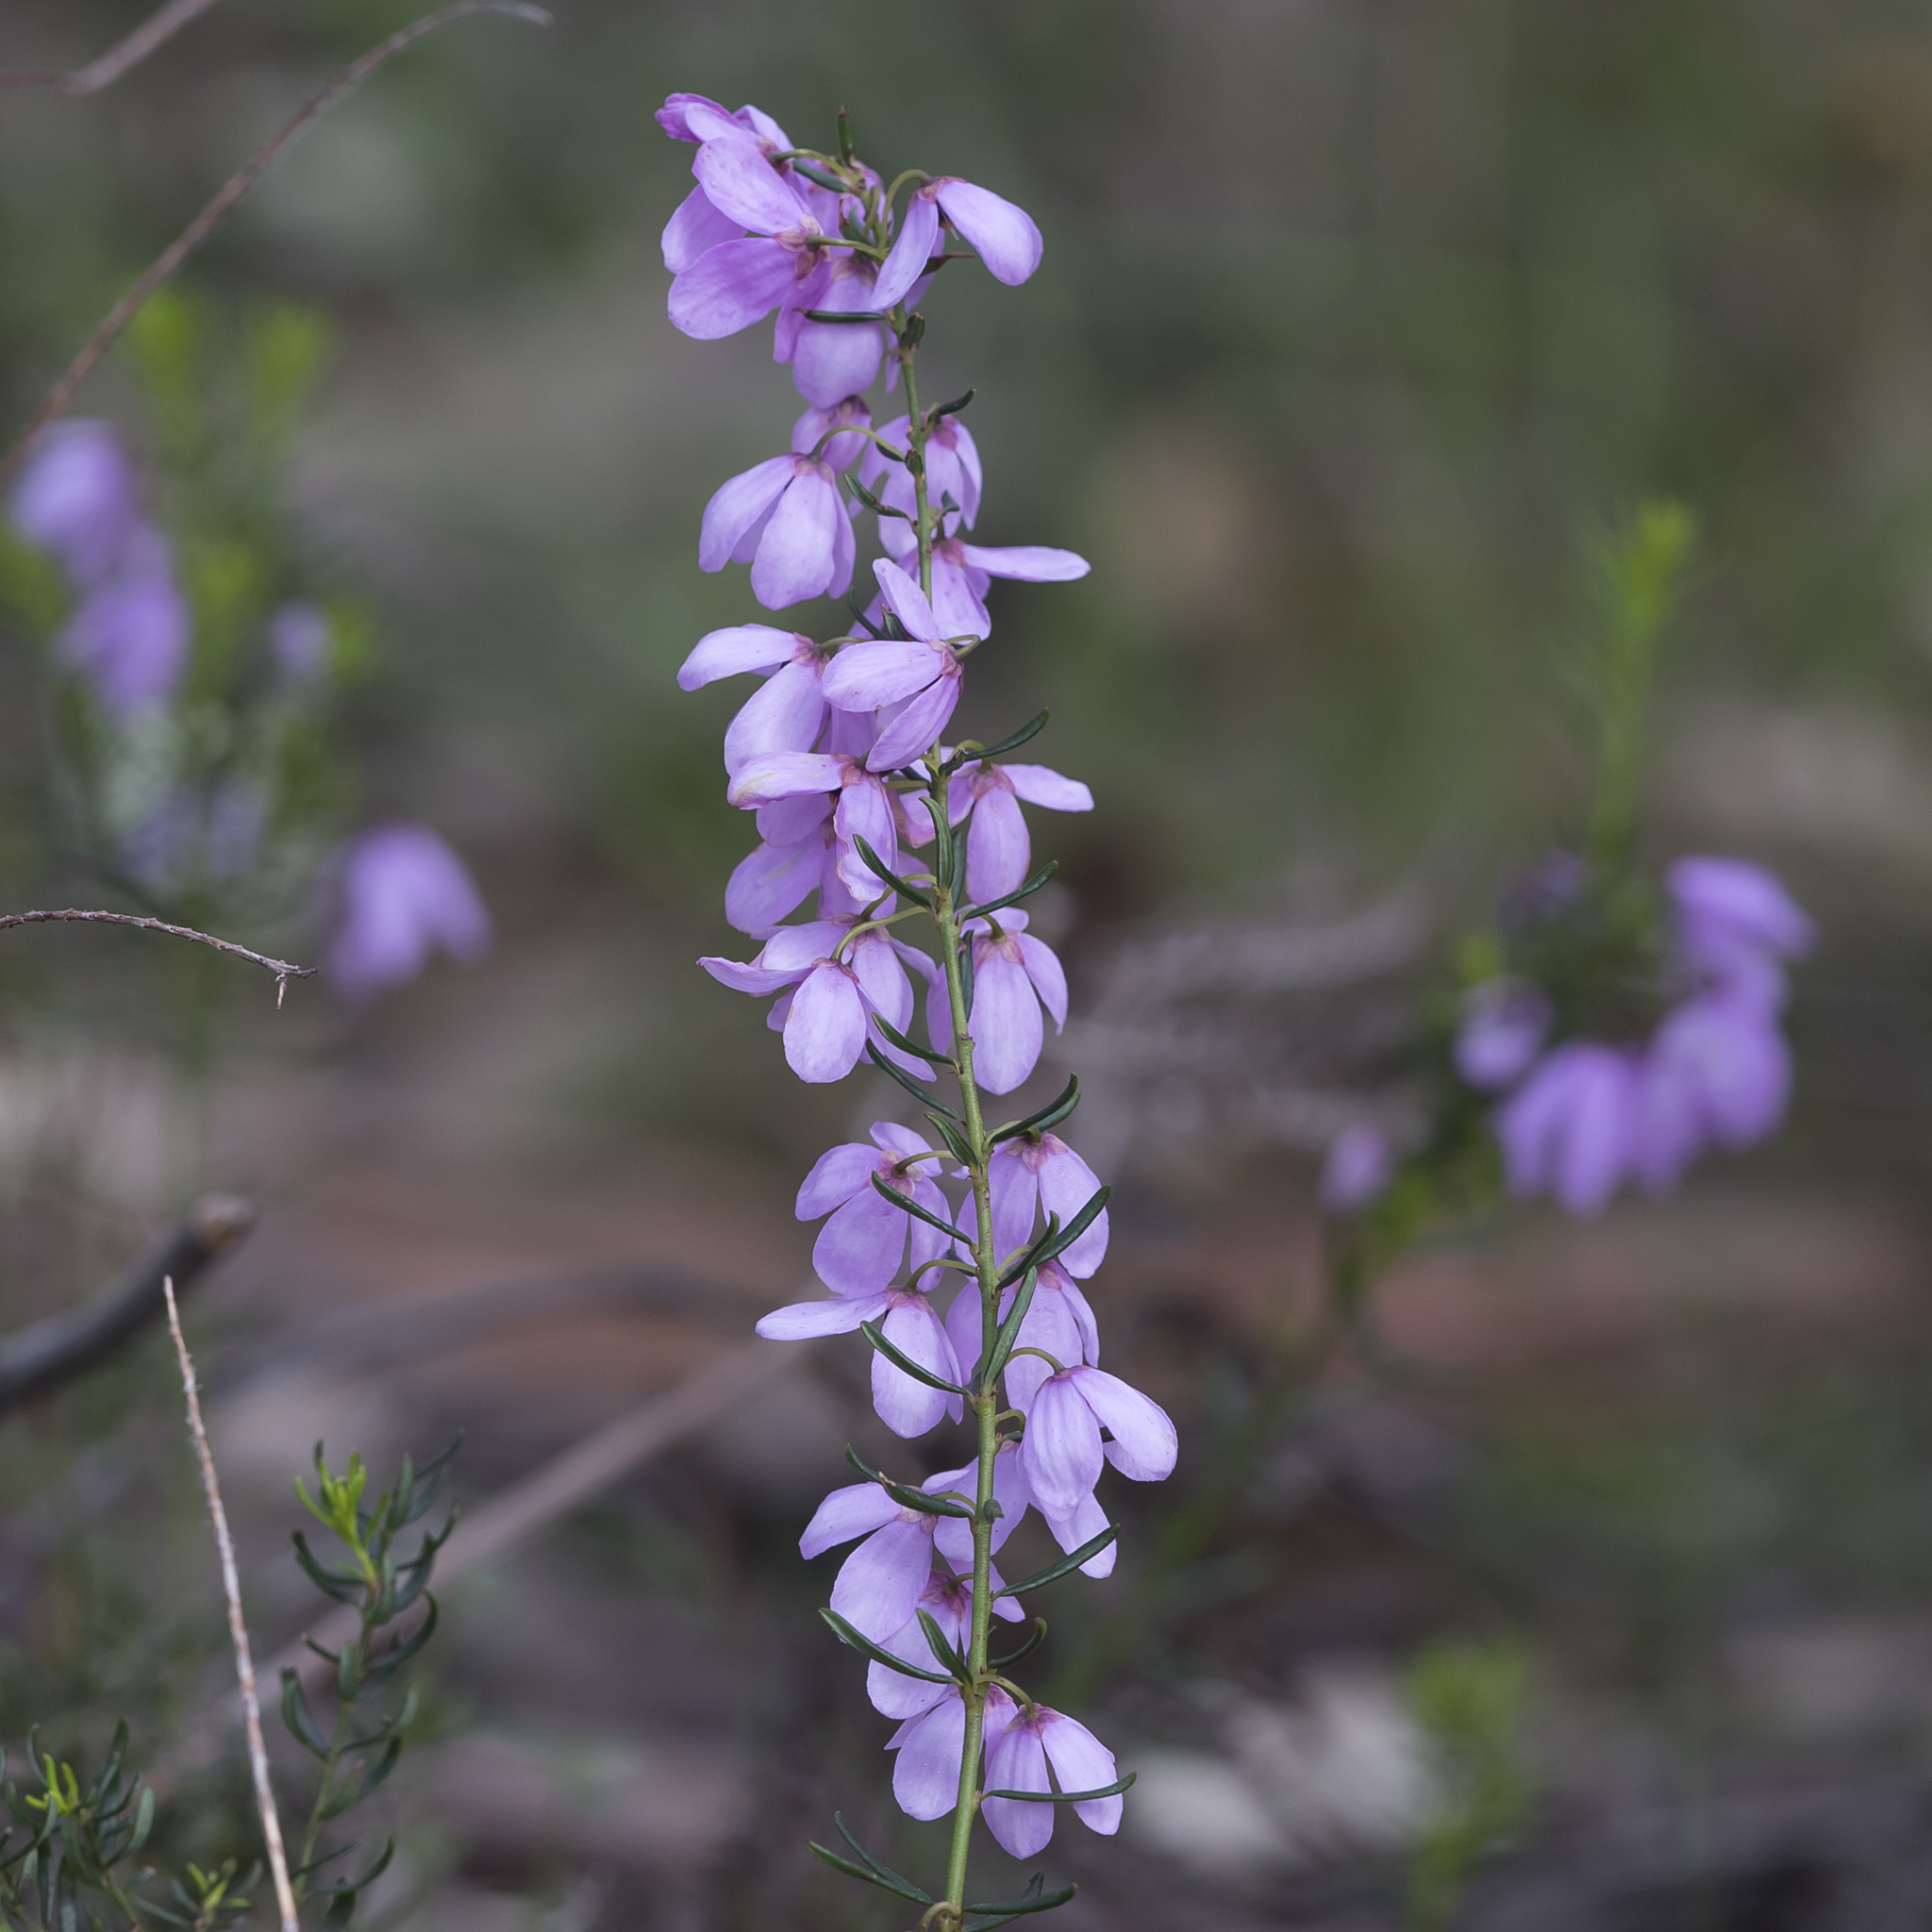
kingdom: Plantae
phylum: Tracheophyta
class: Magnoliopsida
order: Oxalidales
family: Elaeocarpaceae
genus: Tetratheca
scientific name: Tetratheca pilosa
